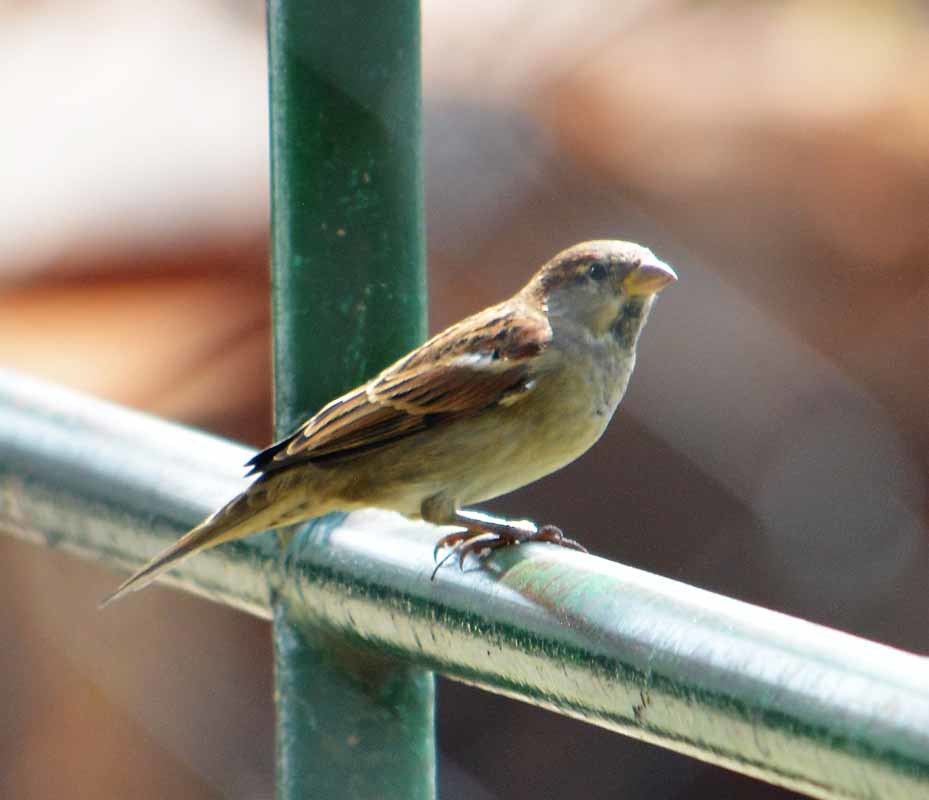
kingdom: Animalia
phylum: Chordata
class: Aves
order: Passeriformes
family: Passeridae
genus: Passer
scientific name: Passer domesticus
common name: House sparrow
